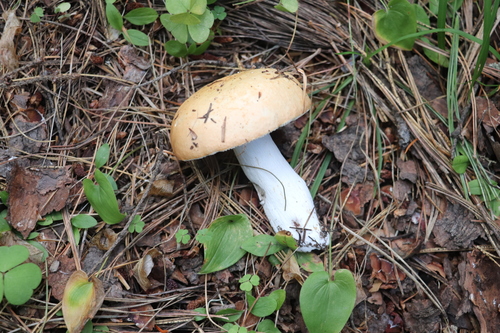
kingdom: Fungi
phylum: Basidiomycota
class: Agaricomycetes
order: Russulales
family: Russulaceae
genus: Russula
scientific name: Russula decolorans
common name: Copper brittlegill
